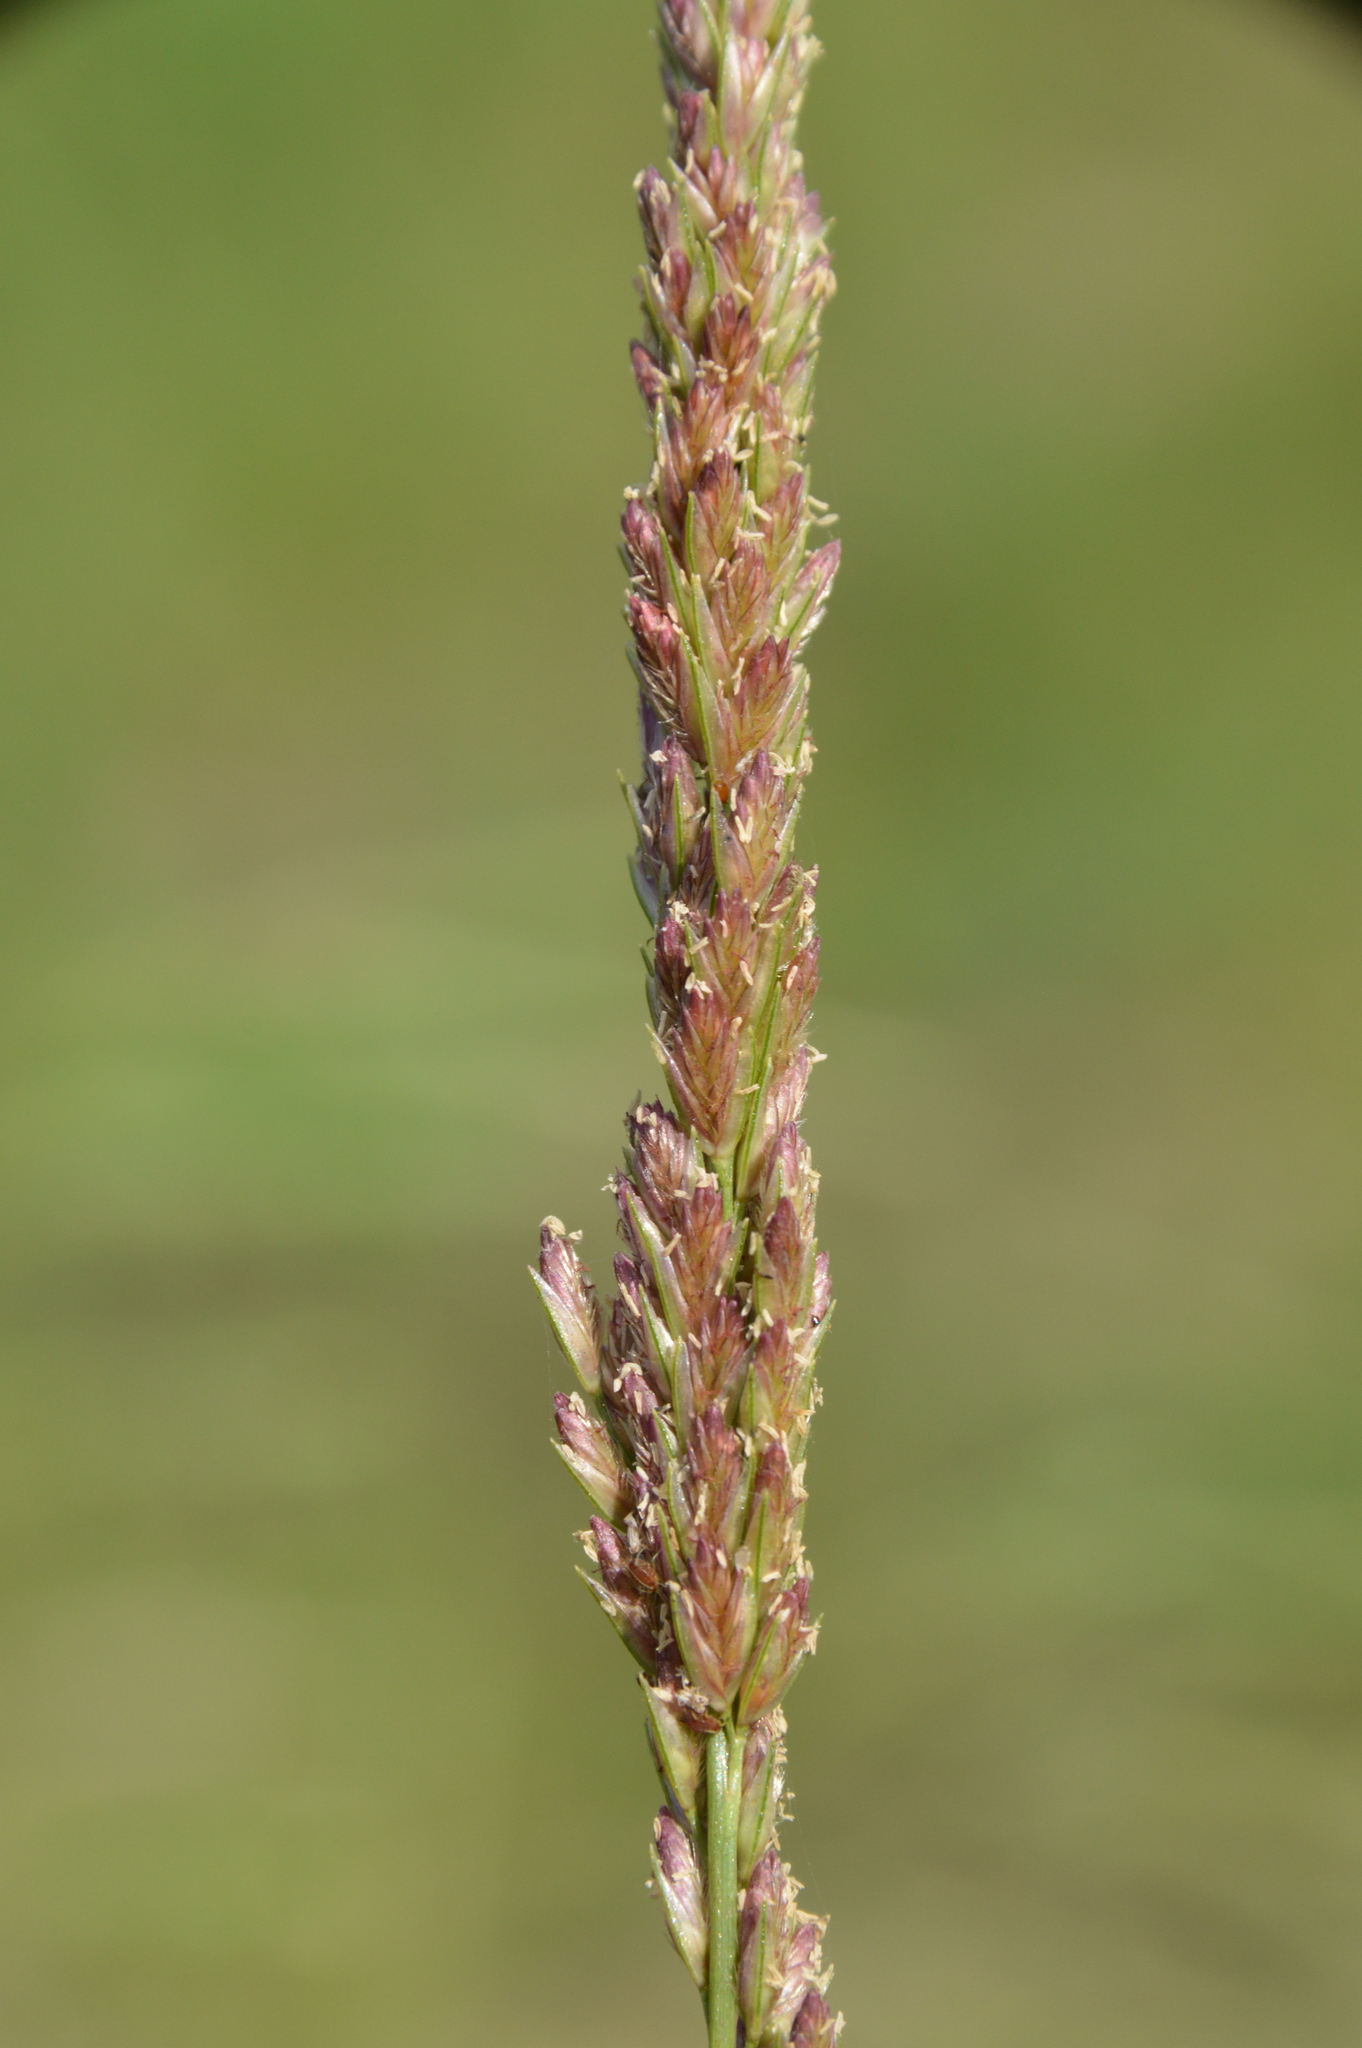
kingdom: Plantae
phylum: Tracheophyta
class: Liliopsida
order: Poales
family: Poaceae
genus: Tridens
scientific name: Tridens strictus
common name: Long-spike tridens
